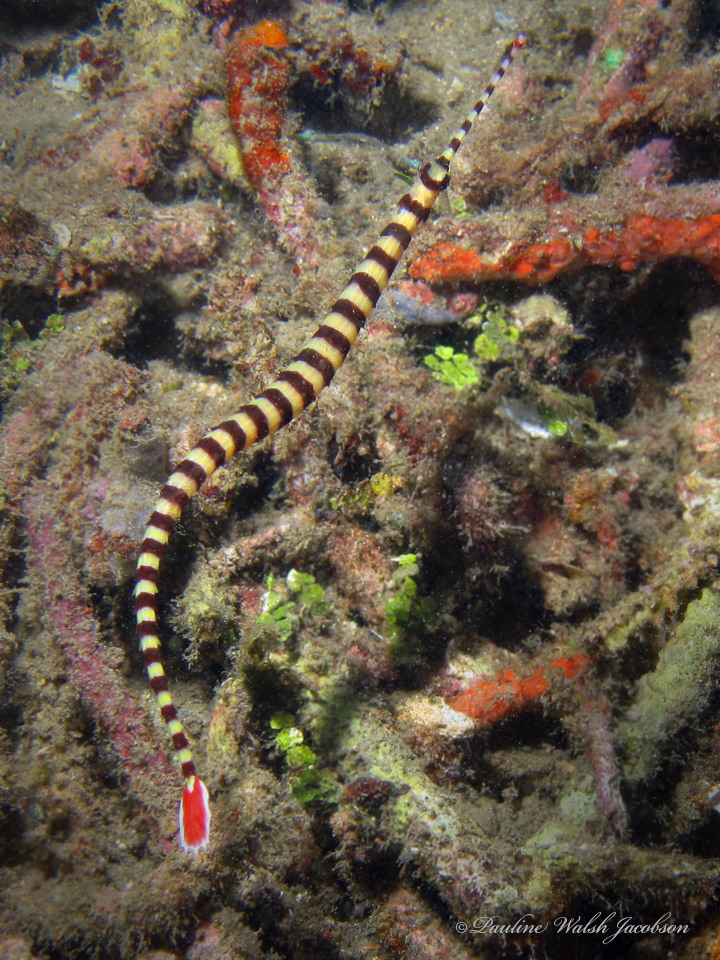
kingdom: Animalia
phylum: Chordata
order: Syngnathiformes
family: Syngnathidae
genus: Dunckerocampus
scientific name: Dunckerocampus dactyliophorus
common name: Banded pipefish
